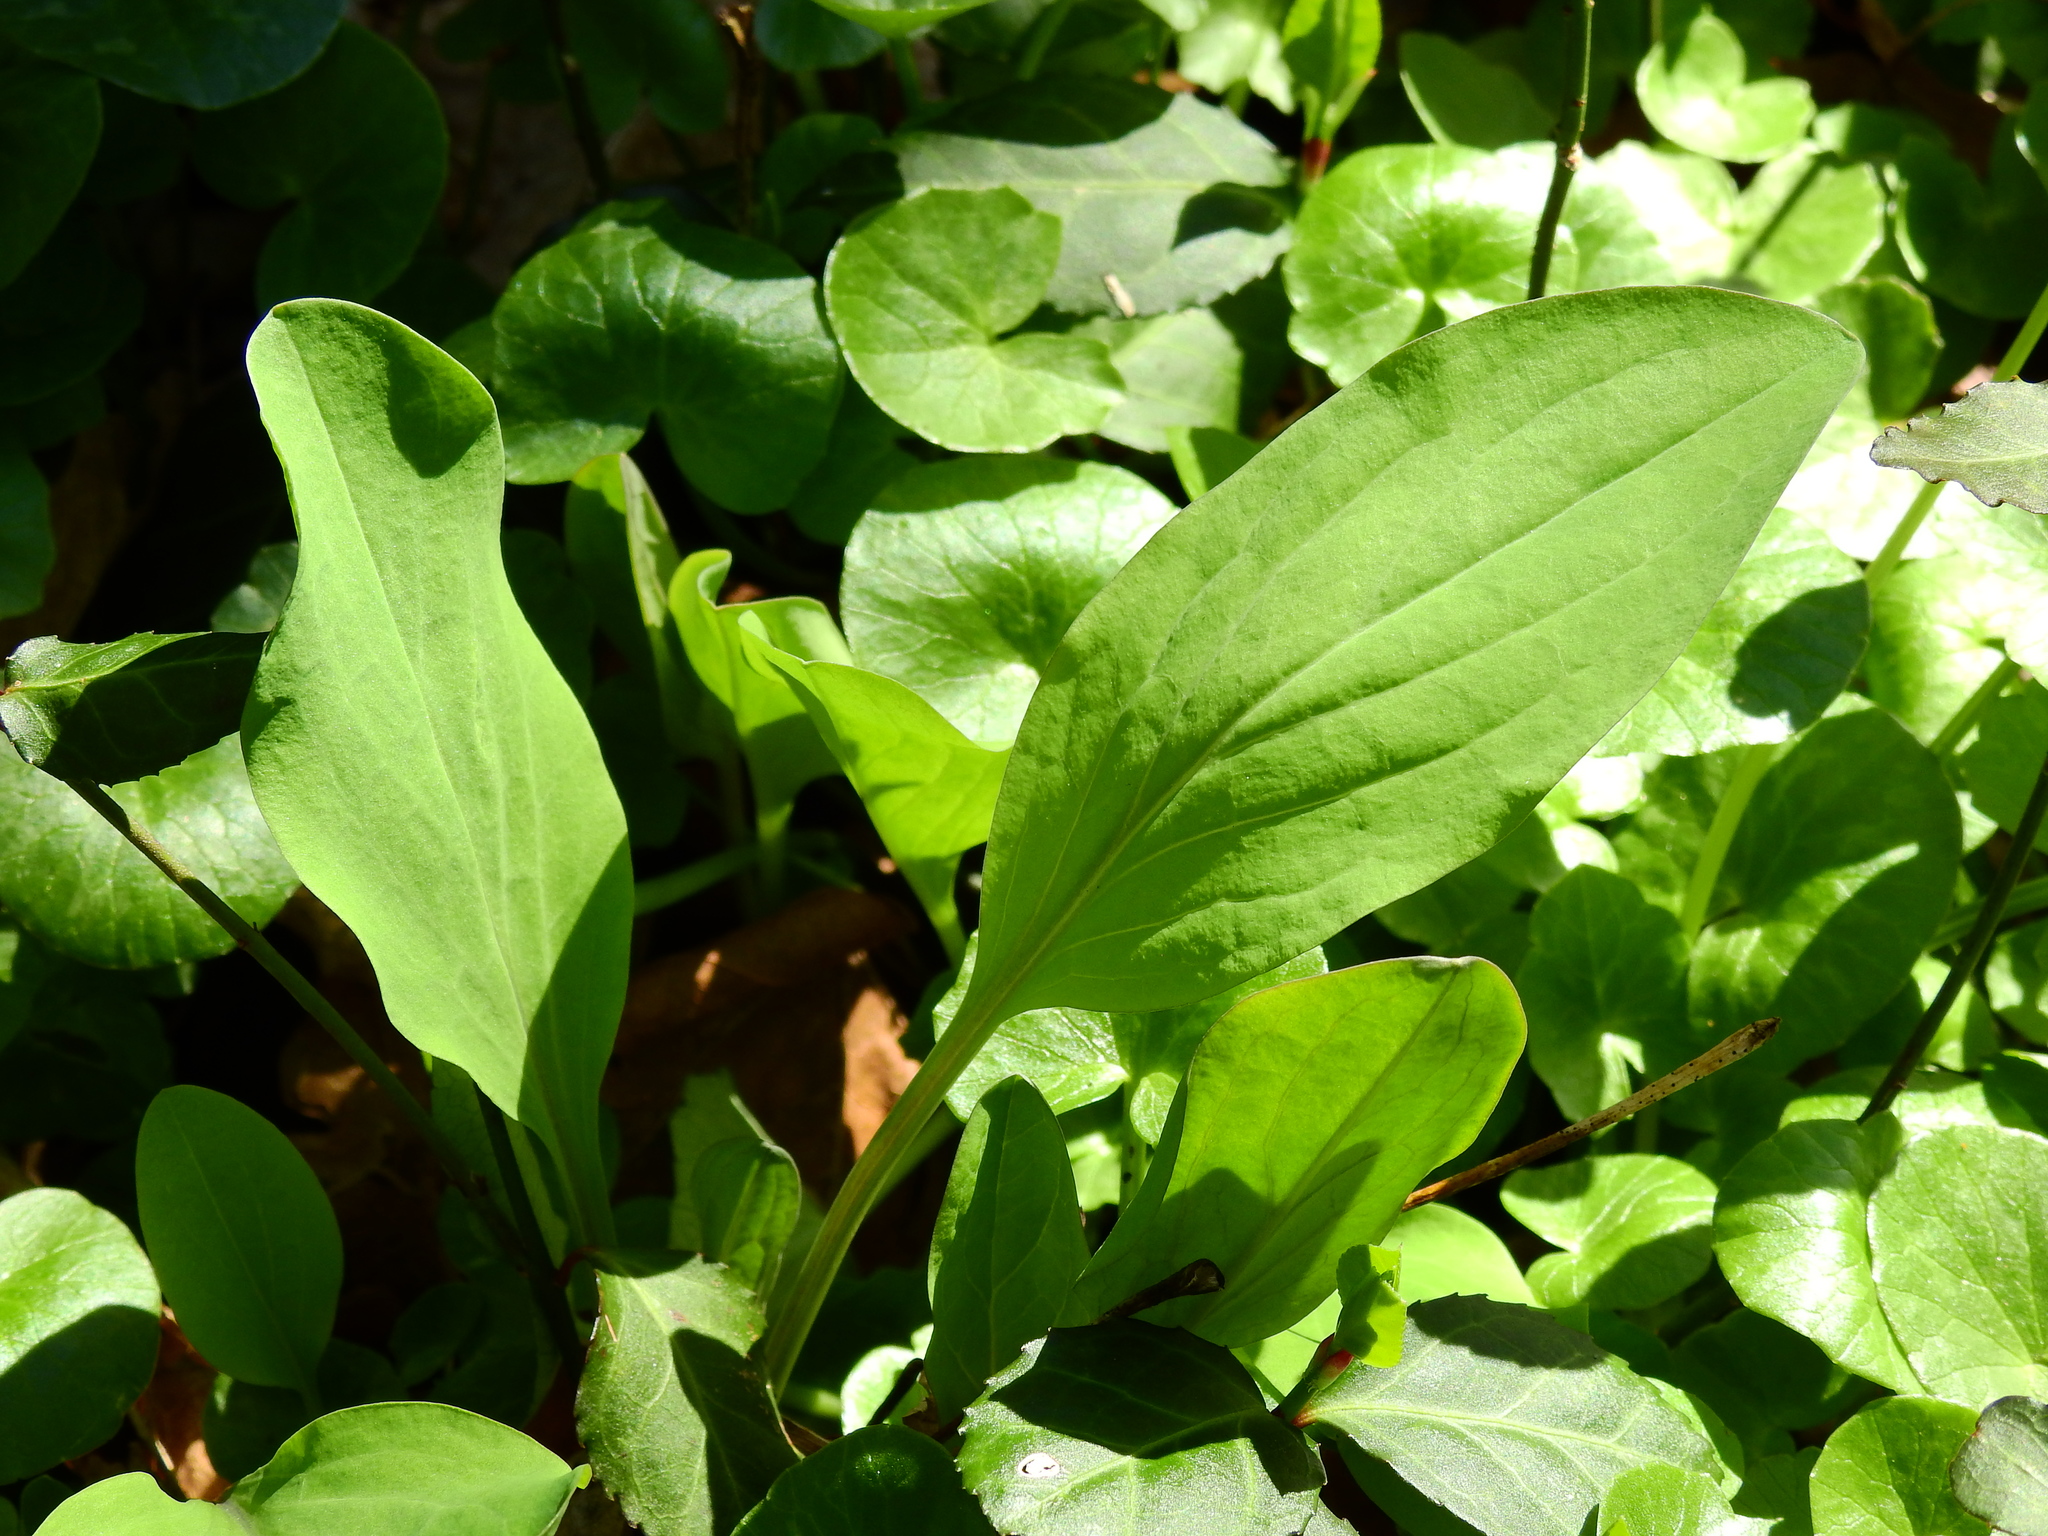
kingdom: Plantae
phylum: Tracheophyta
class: Magnoliopsida
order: Boraginales
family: Boraginaceae
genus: Mertensia
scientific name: Mertensia virginica
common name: Virginia bluebells
